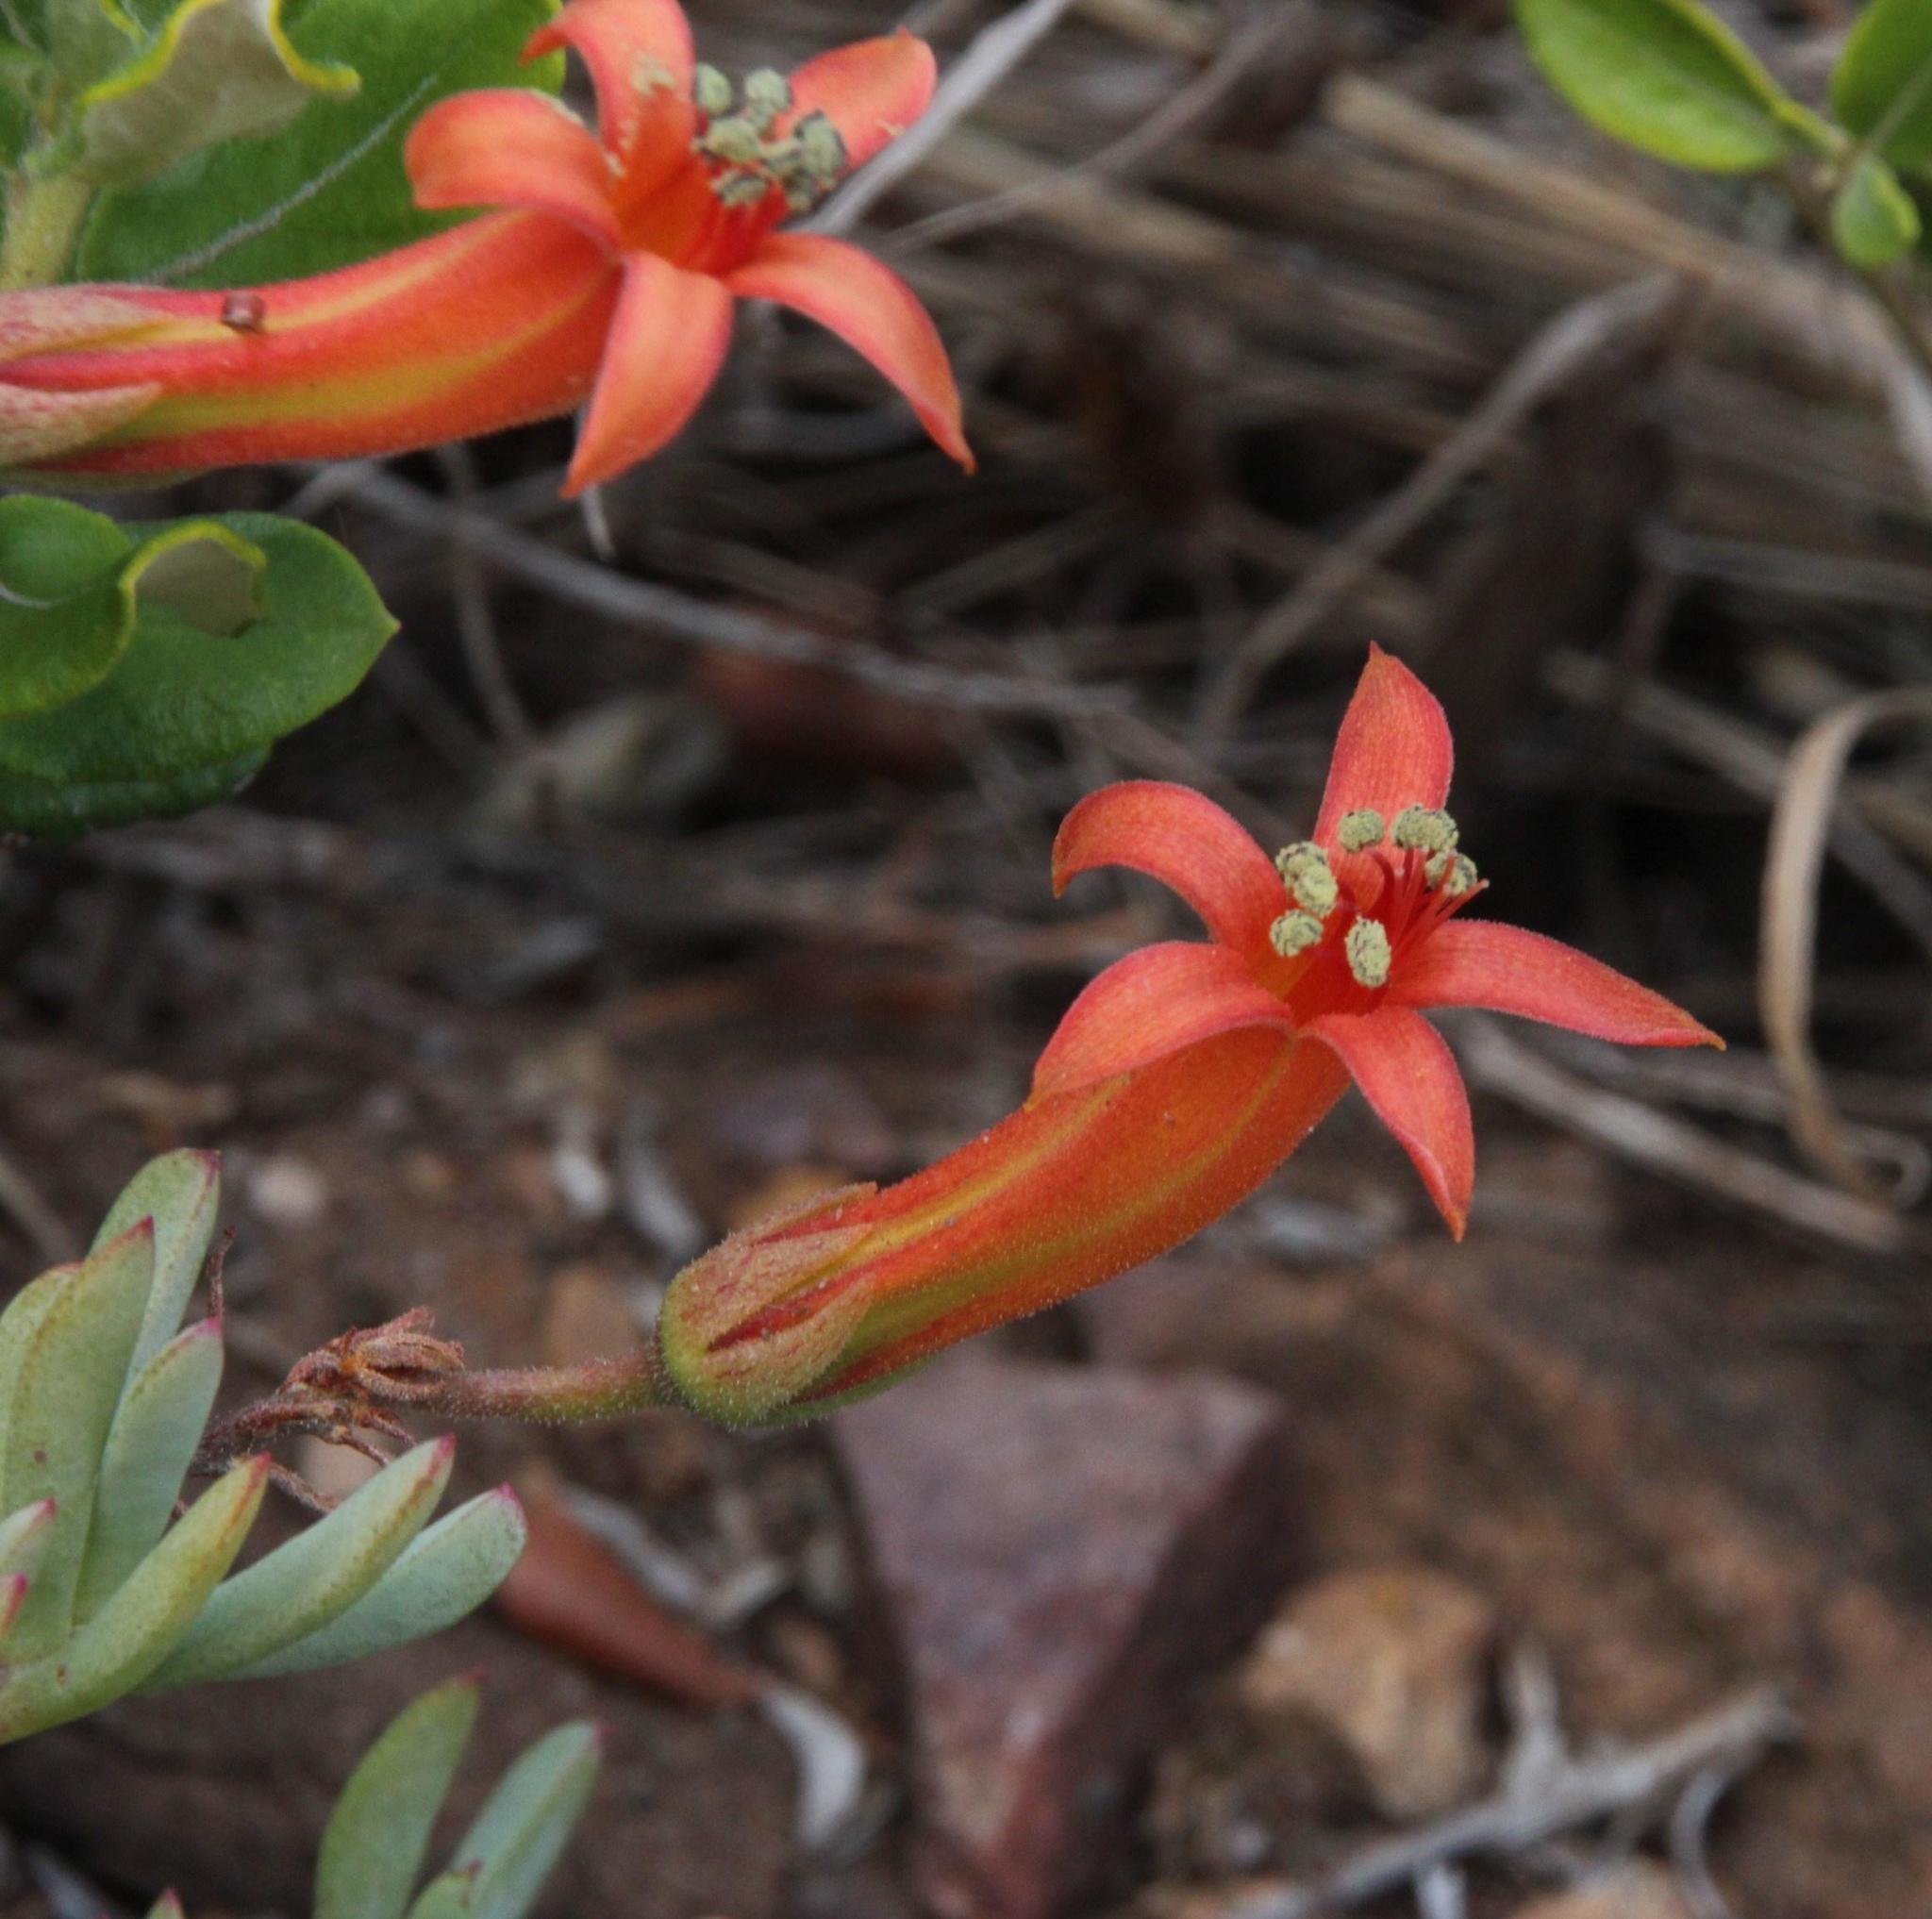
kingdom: Plantae
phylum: Tracheophyta
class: Magnoliopsida
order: Saxifragales
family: Crassulaceae
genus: Tylecodon
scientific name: Tylecodon grandiflorus
